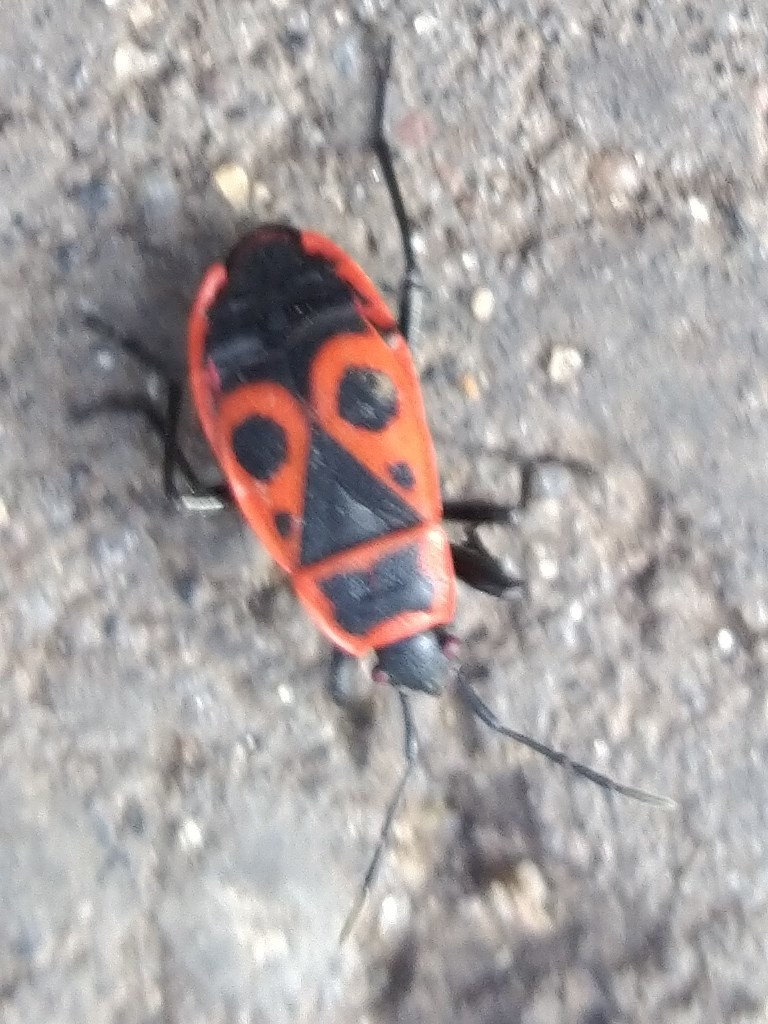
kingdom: Animalia
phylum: Arthropoda
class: Insecta
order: Hemiptera
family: Pyrrhocoridae
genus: Pyrrhocoris
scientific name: Pyrrhocoris apterus
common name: Firebug
